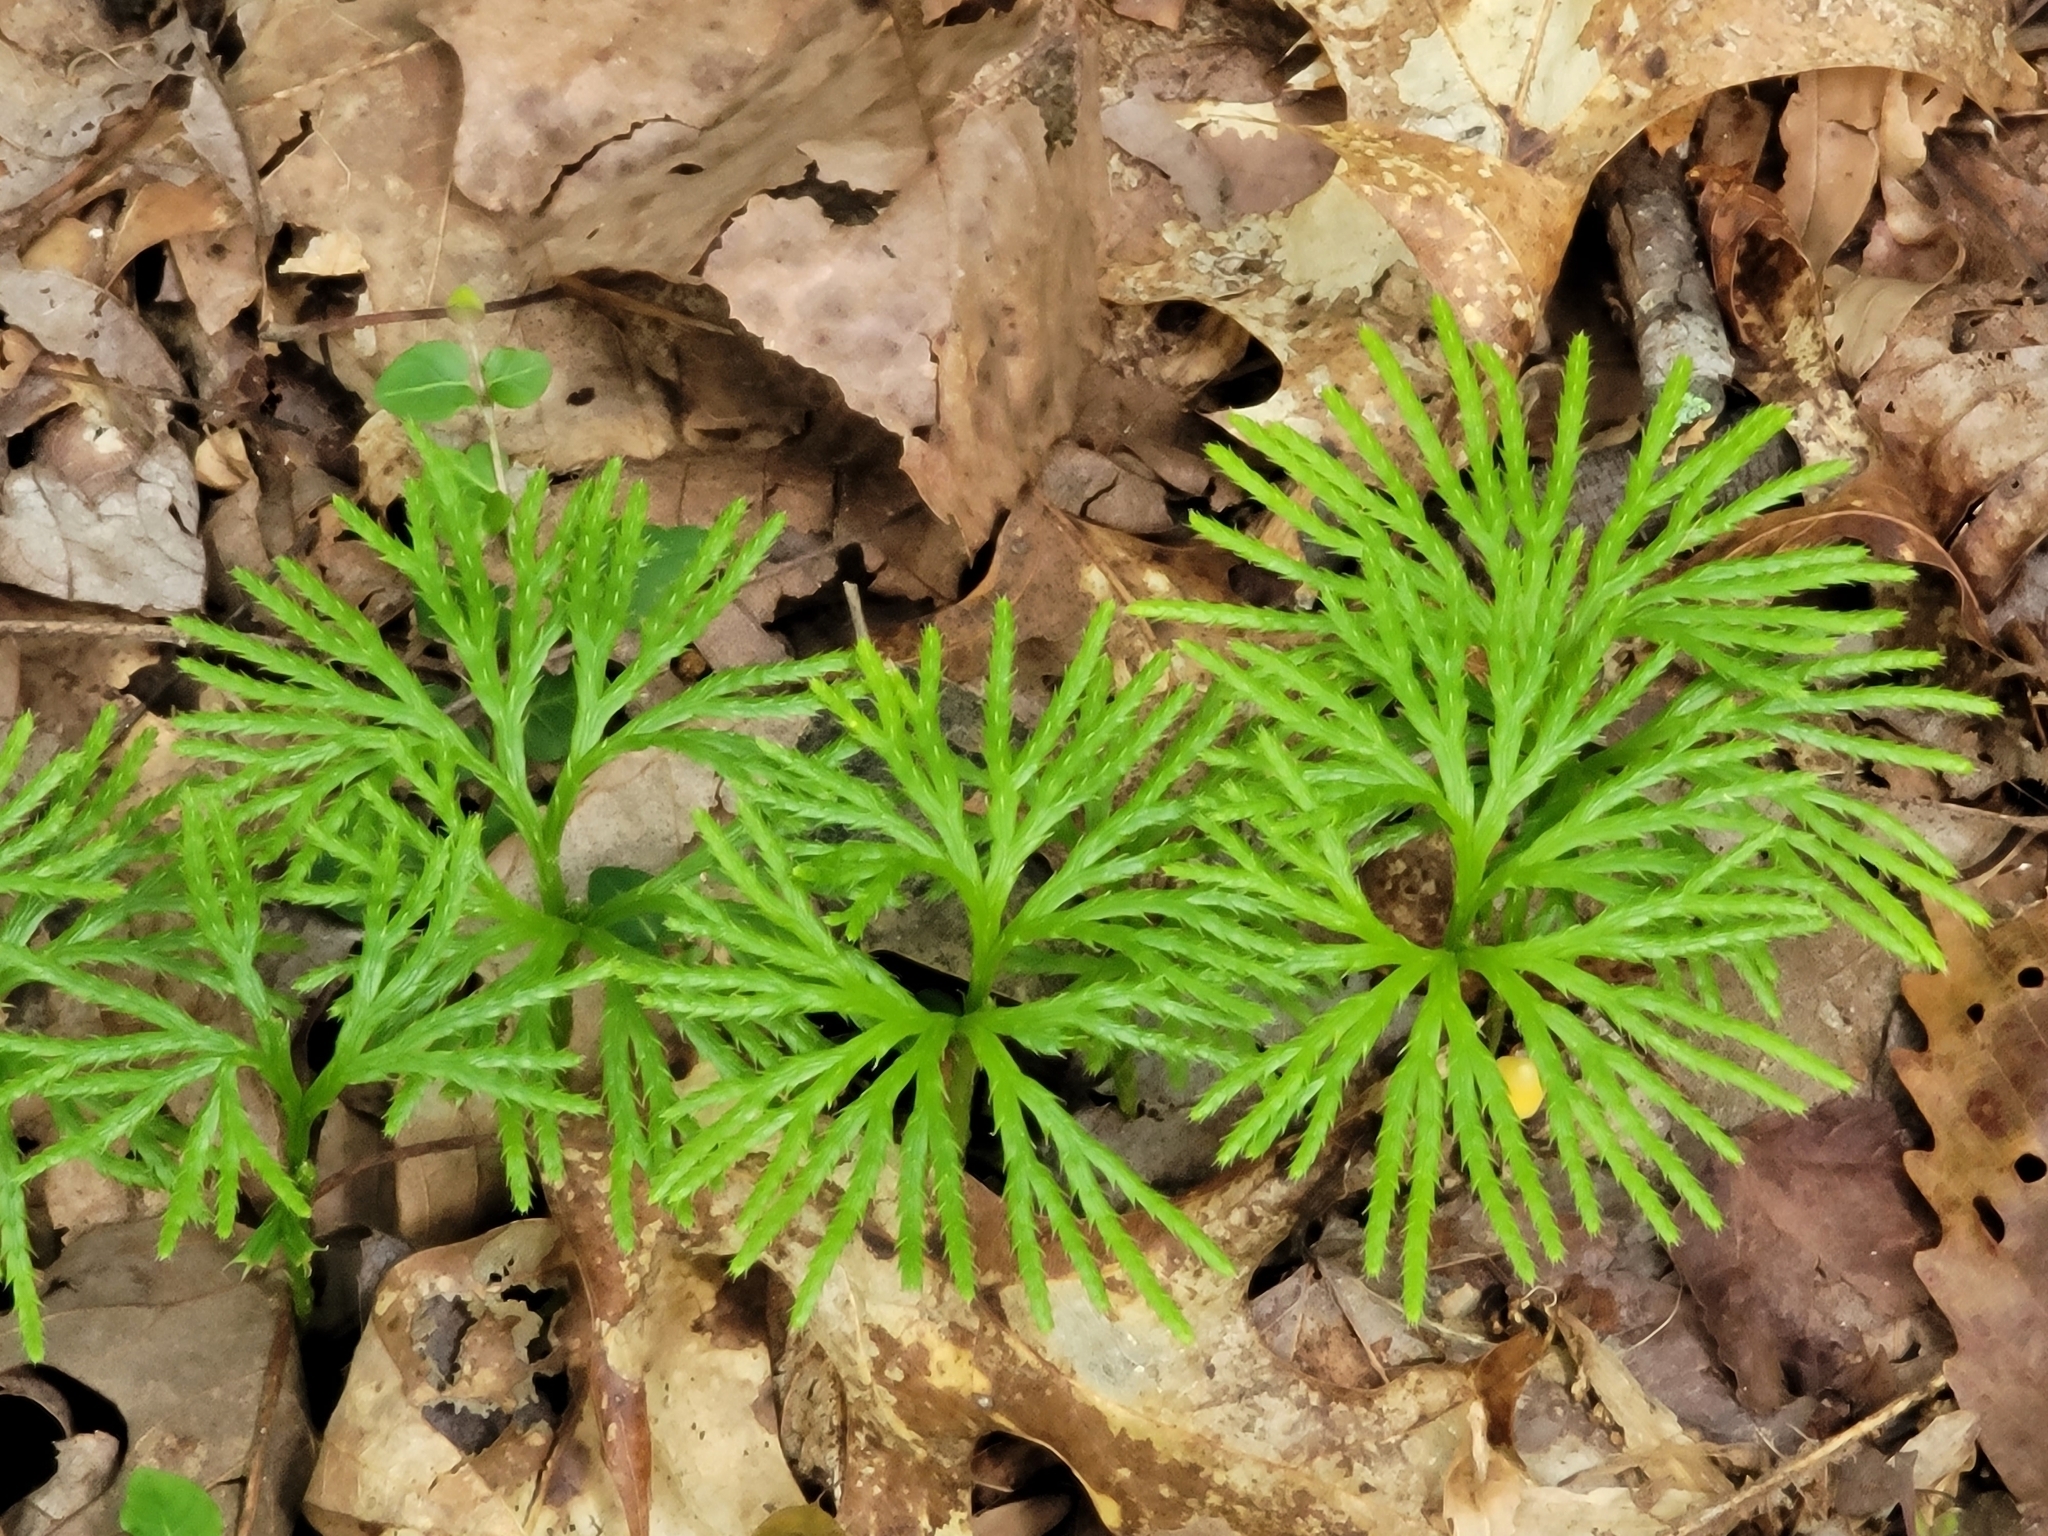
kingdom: Plantae
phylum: Tracheophyta
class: Lycopodiopsida
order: Lycopodiales
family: Lycopodiaceae
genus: Diphasiastrum
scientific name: Diphasiastrum digitatum
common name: Southern running-pine
